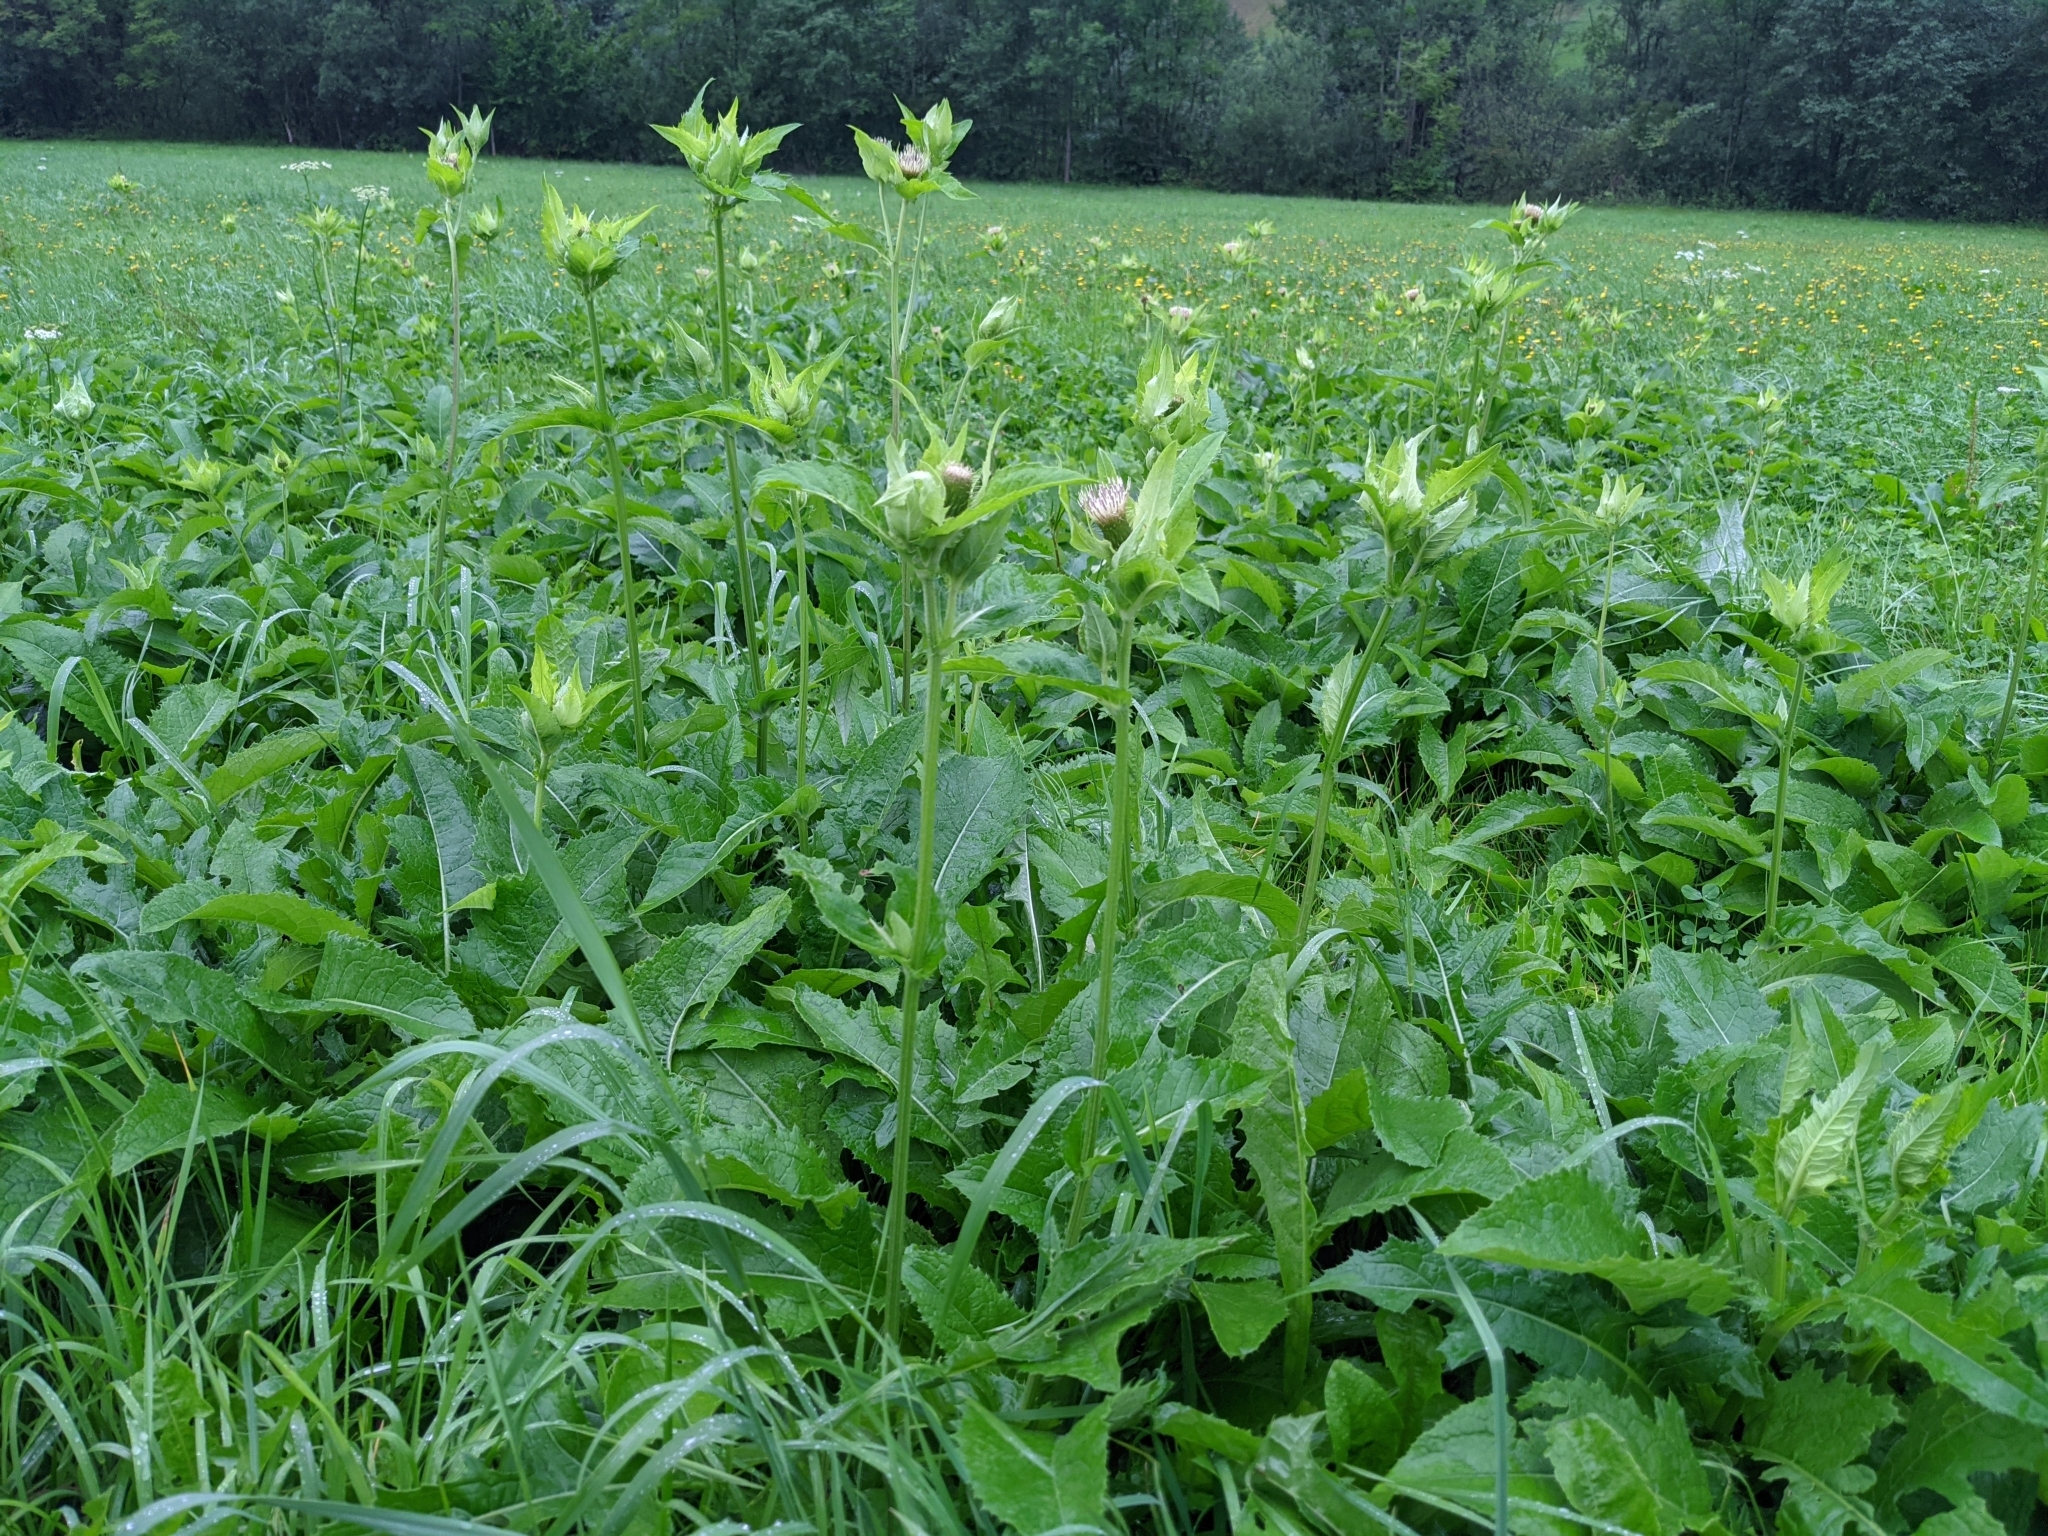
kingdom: Plantae
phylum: Tracheophyta
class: Magnoliopsida
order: Asterales
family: Asteraceae
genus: Cirsium
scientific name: Cirsium oleraceum
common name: Cabbage thistle
